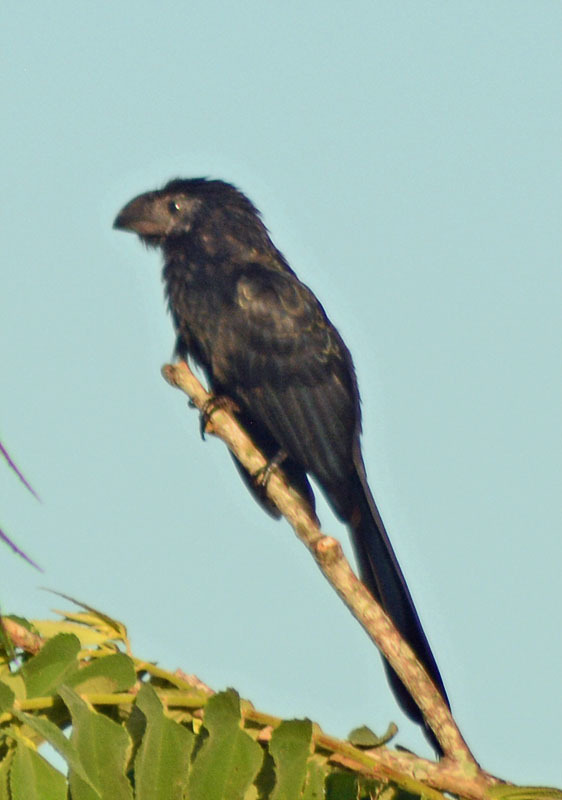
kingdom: Animalia
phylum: Chordata
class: Aves
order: Cuculiformes
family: Cuculidae
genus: Crotophaga
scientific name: Crotophaga sulcirostris
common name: Groove-billed ani
